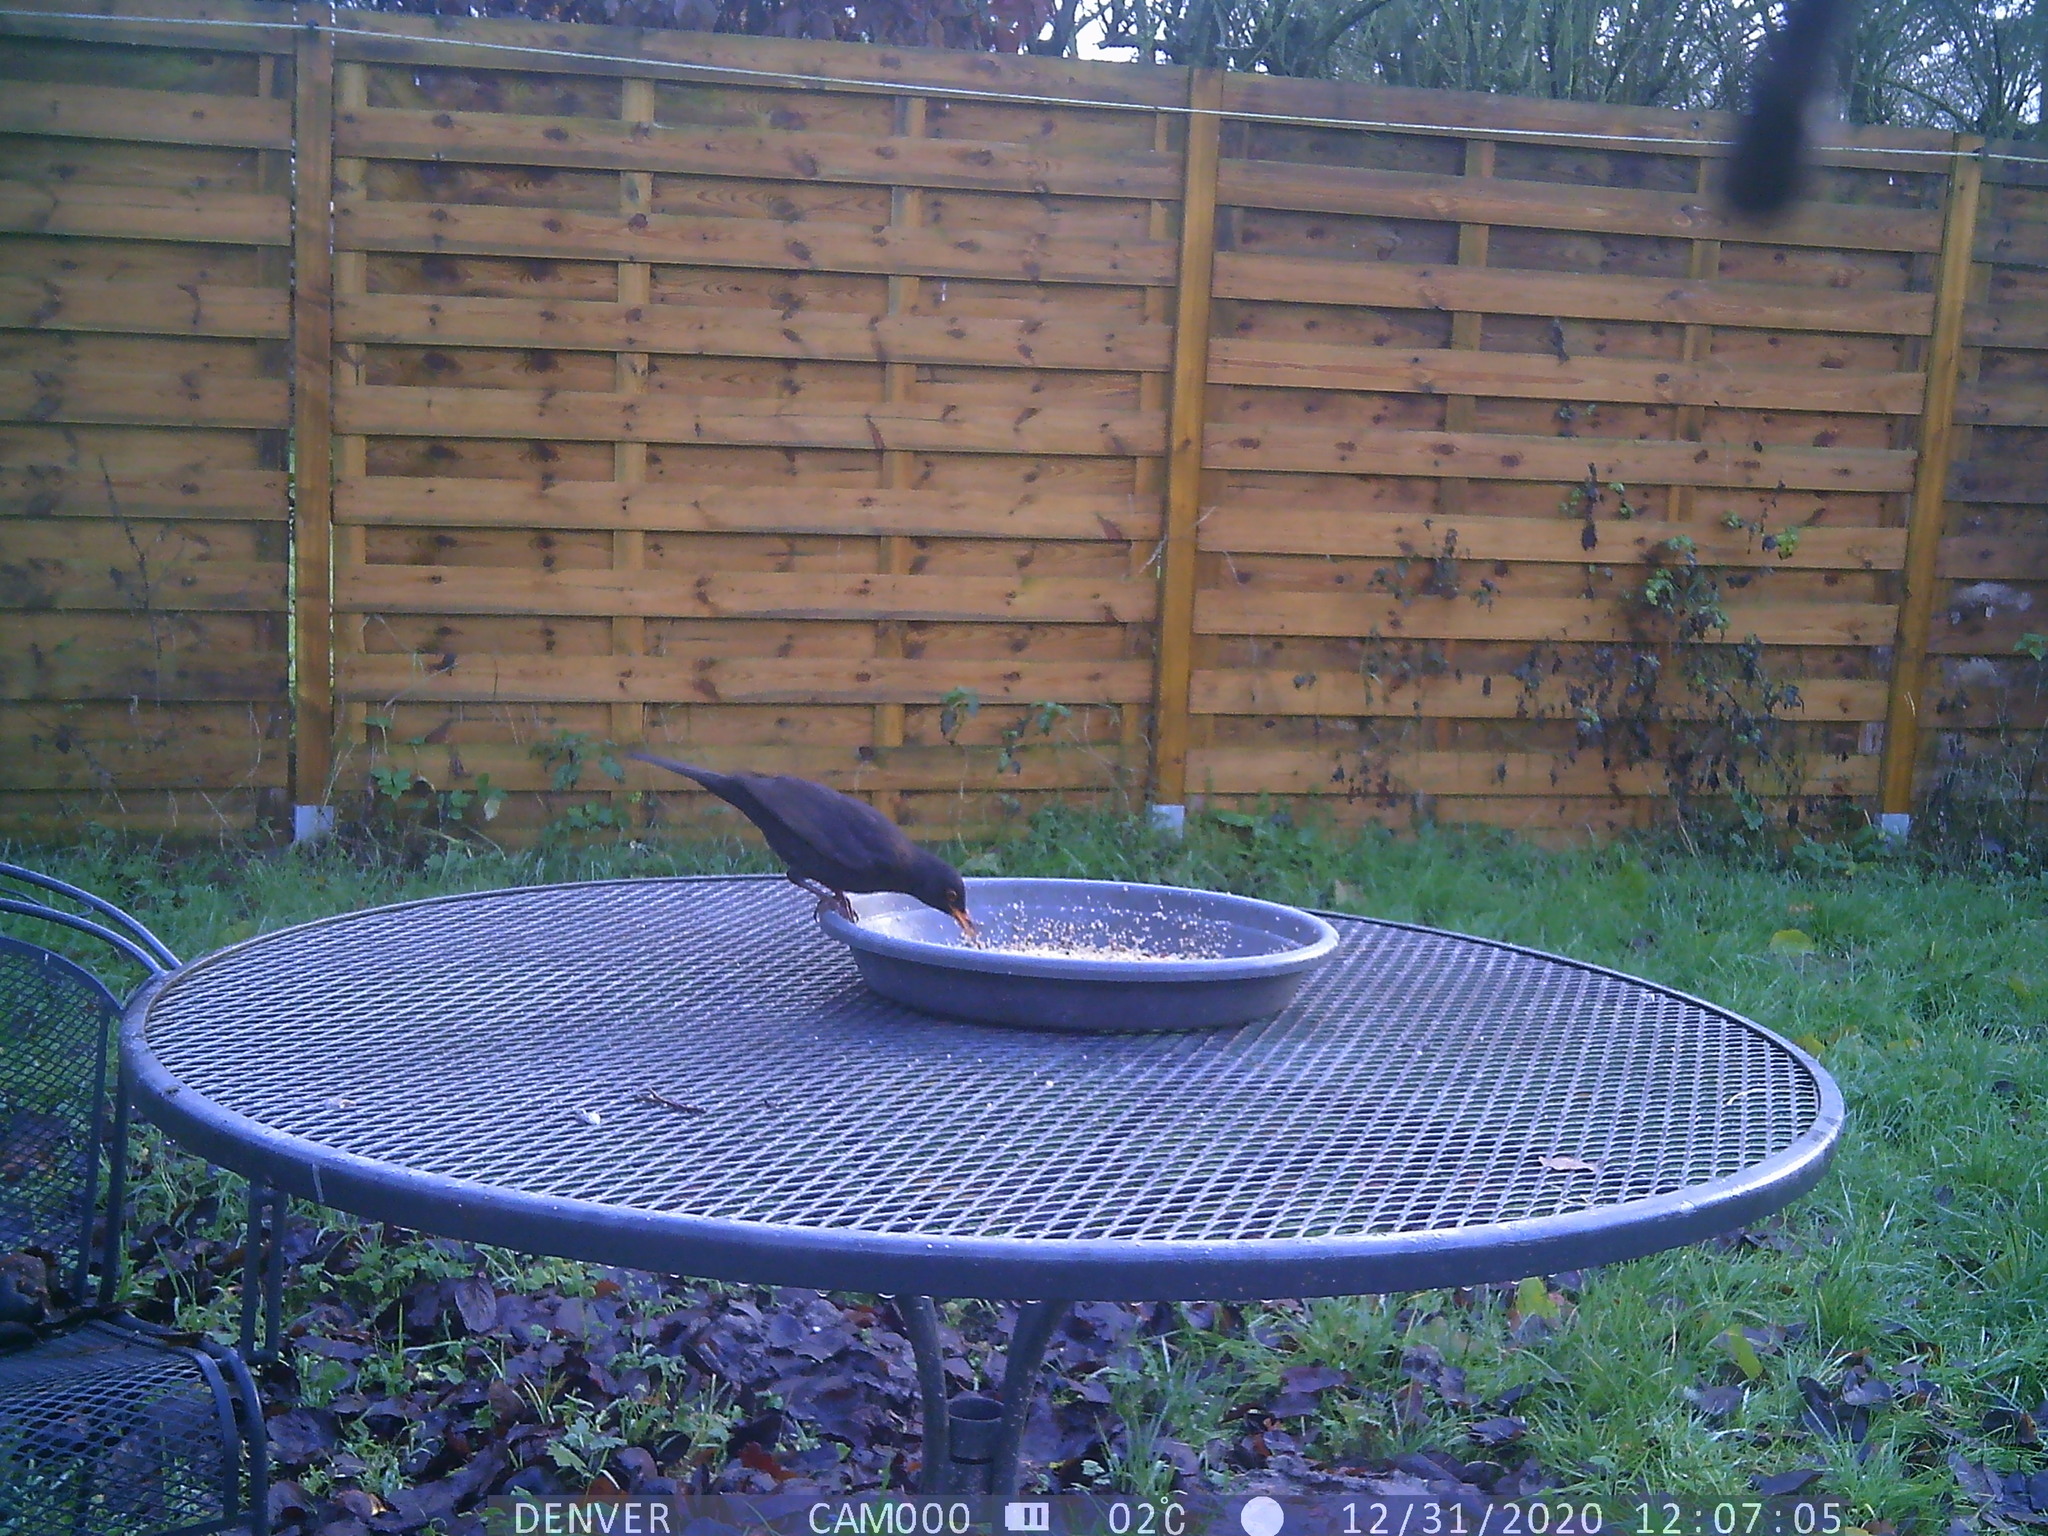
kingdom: Animalia
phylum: Chordata
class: Aves
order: Passeriformes
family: Turdidae
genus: Turdus
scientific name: Turdus merula
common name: Common blackbird
